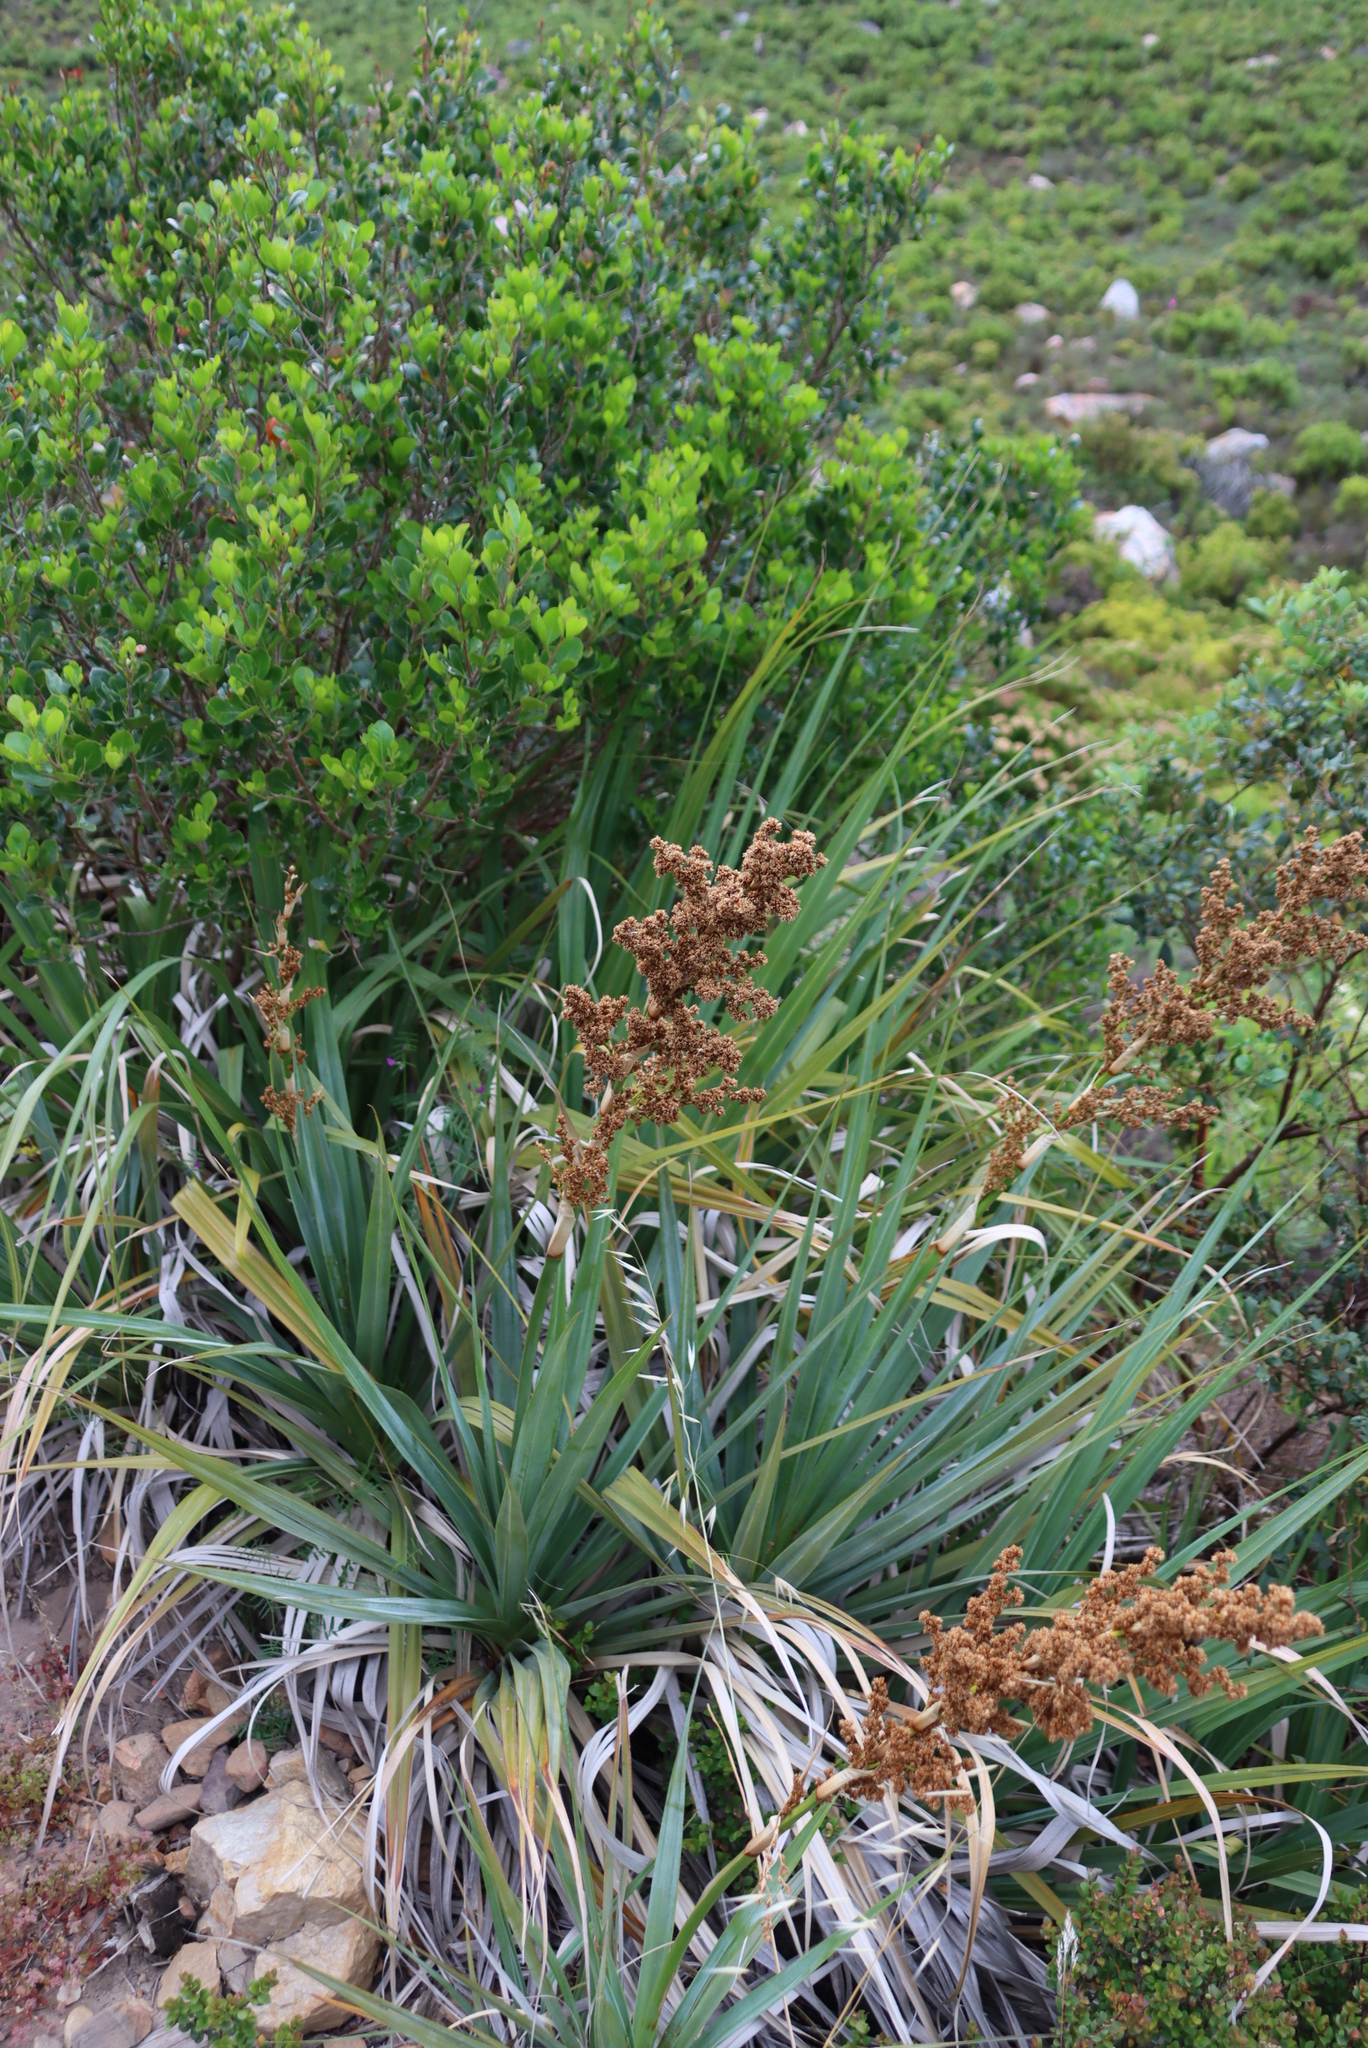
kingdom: Plantae
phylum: Tracheophyta
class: Liliopsida
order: Poales
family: Thurniaceae
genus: Prionium
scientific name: Prionium serratum
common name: Palmiet
